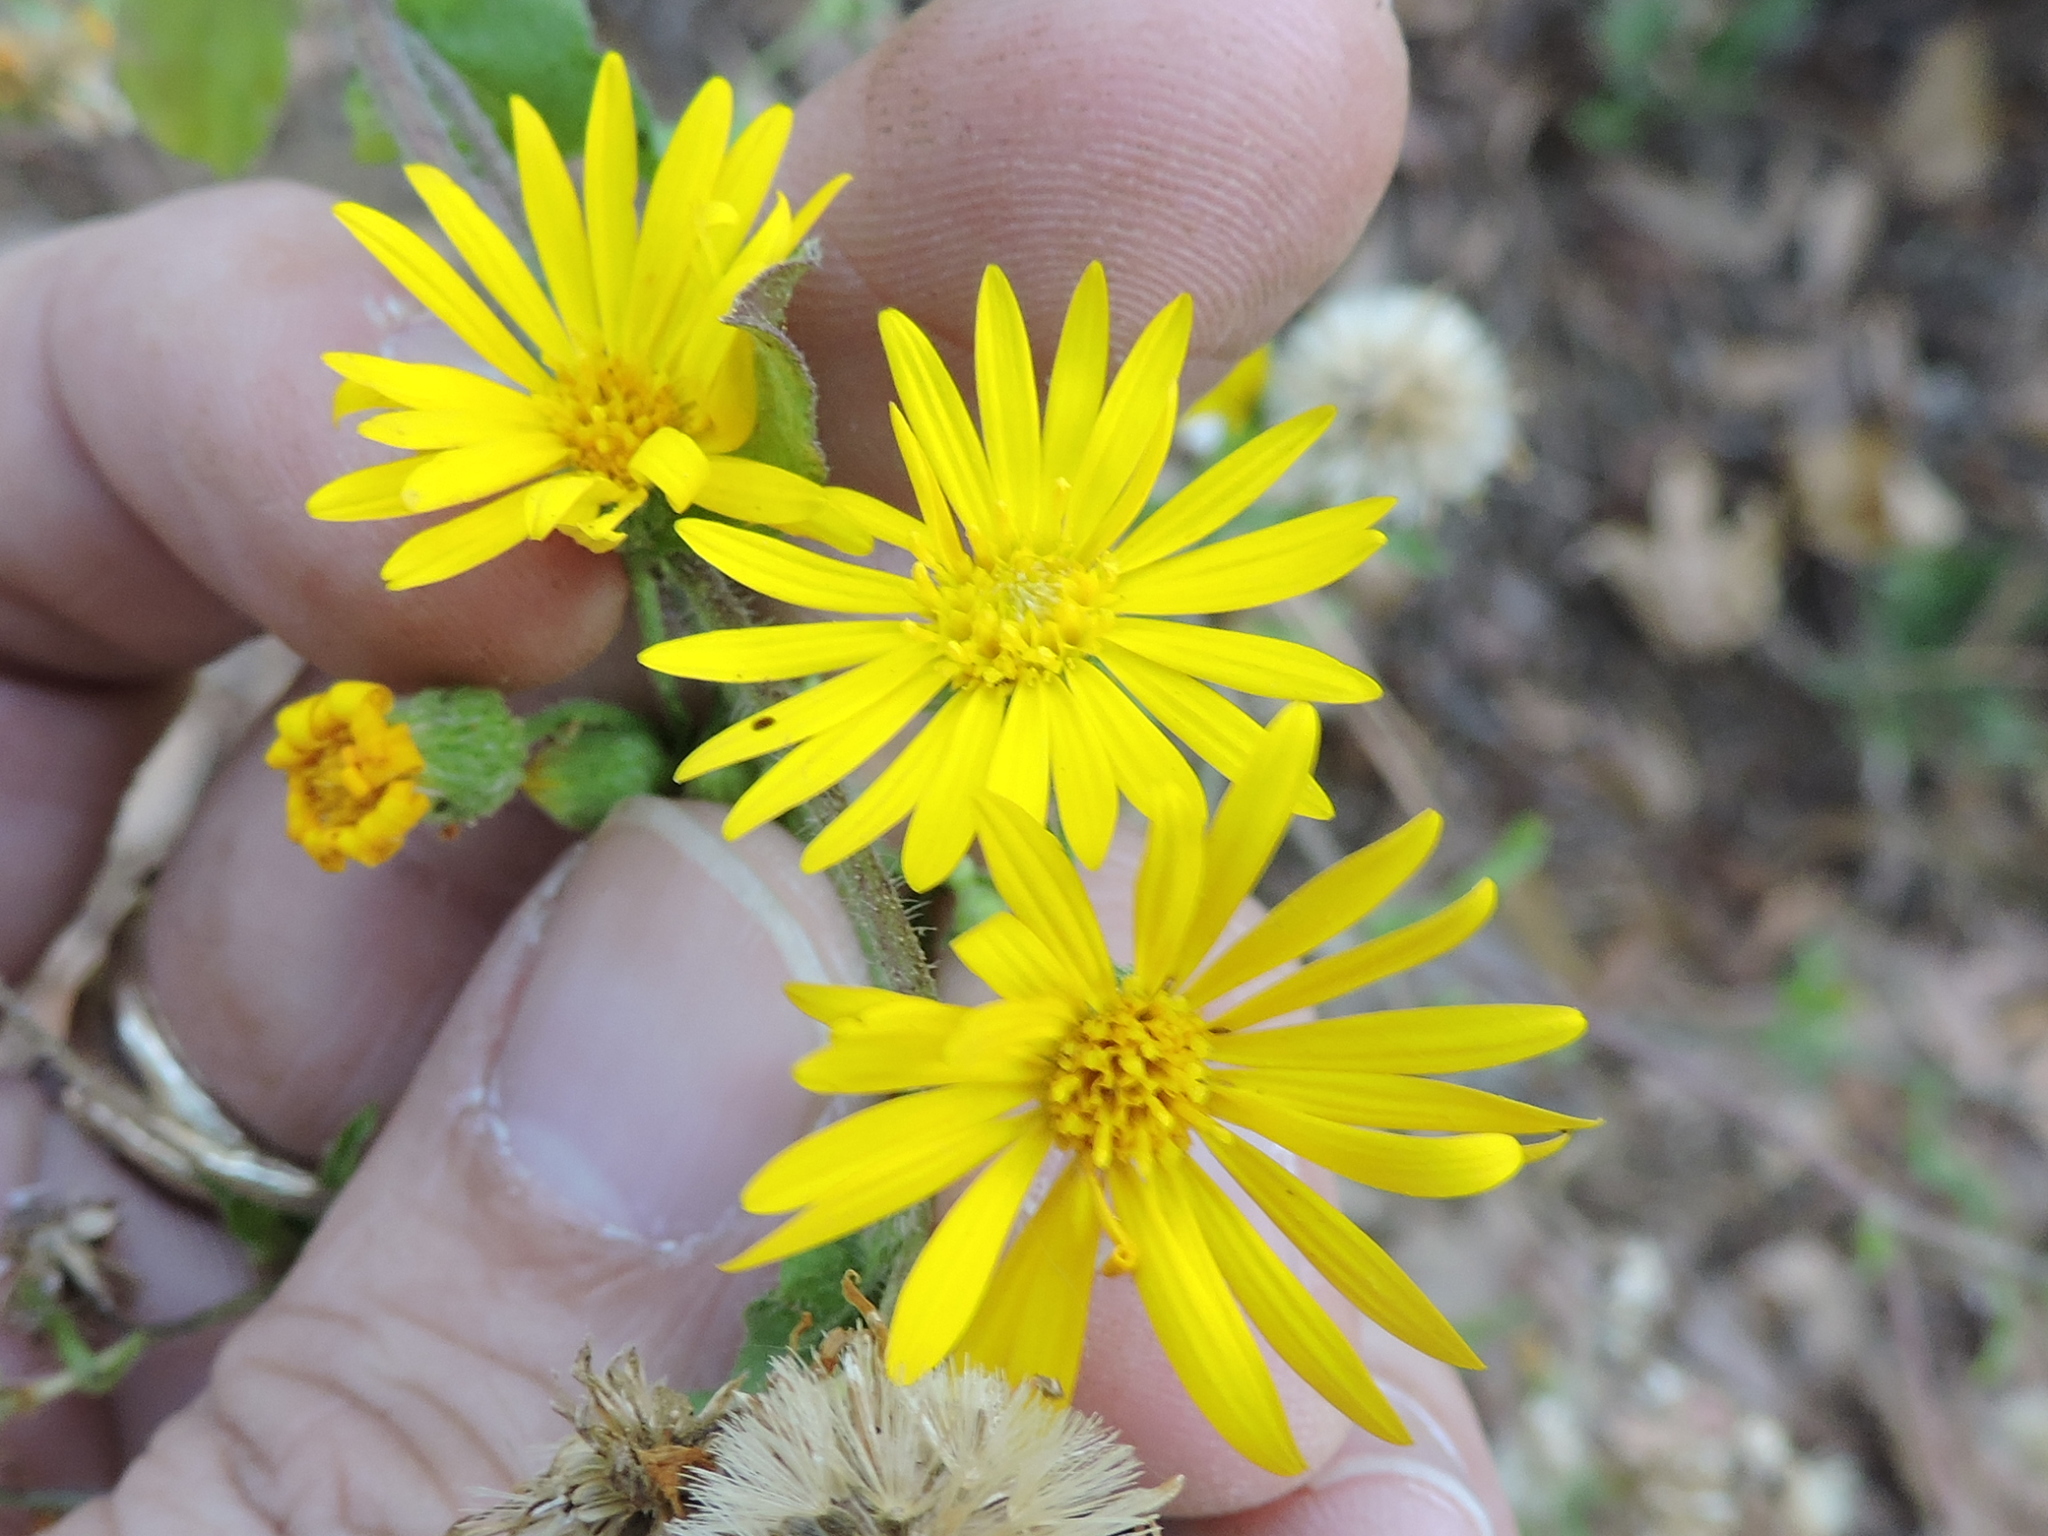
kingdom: Plantae
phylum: Tracheophyta
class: Magnoliopsida
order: Asterales
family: Asteraceae
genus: Heterotheca
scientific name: Heterotheca subaxillaris
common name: Camphorweed
